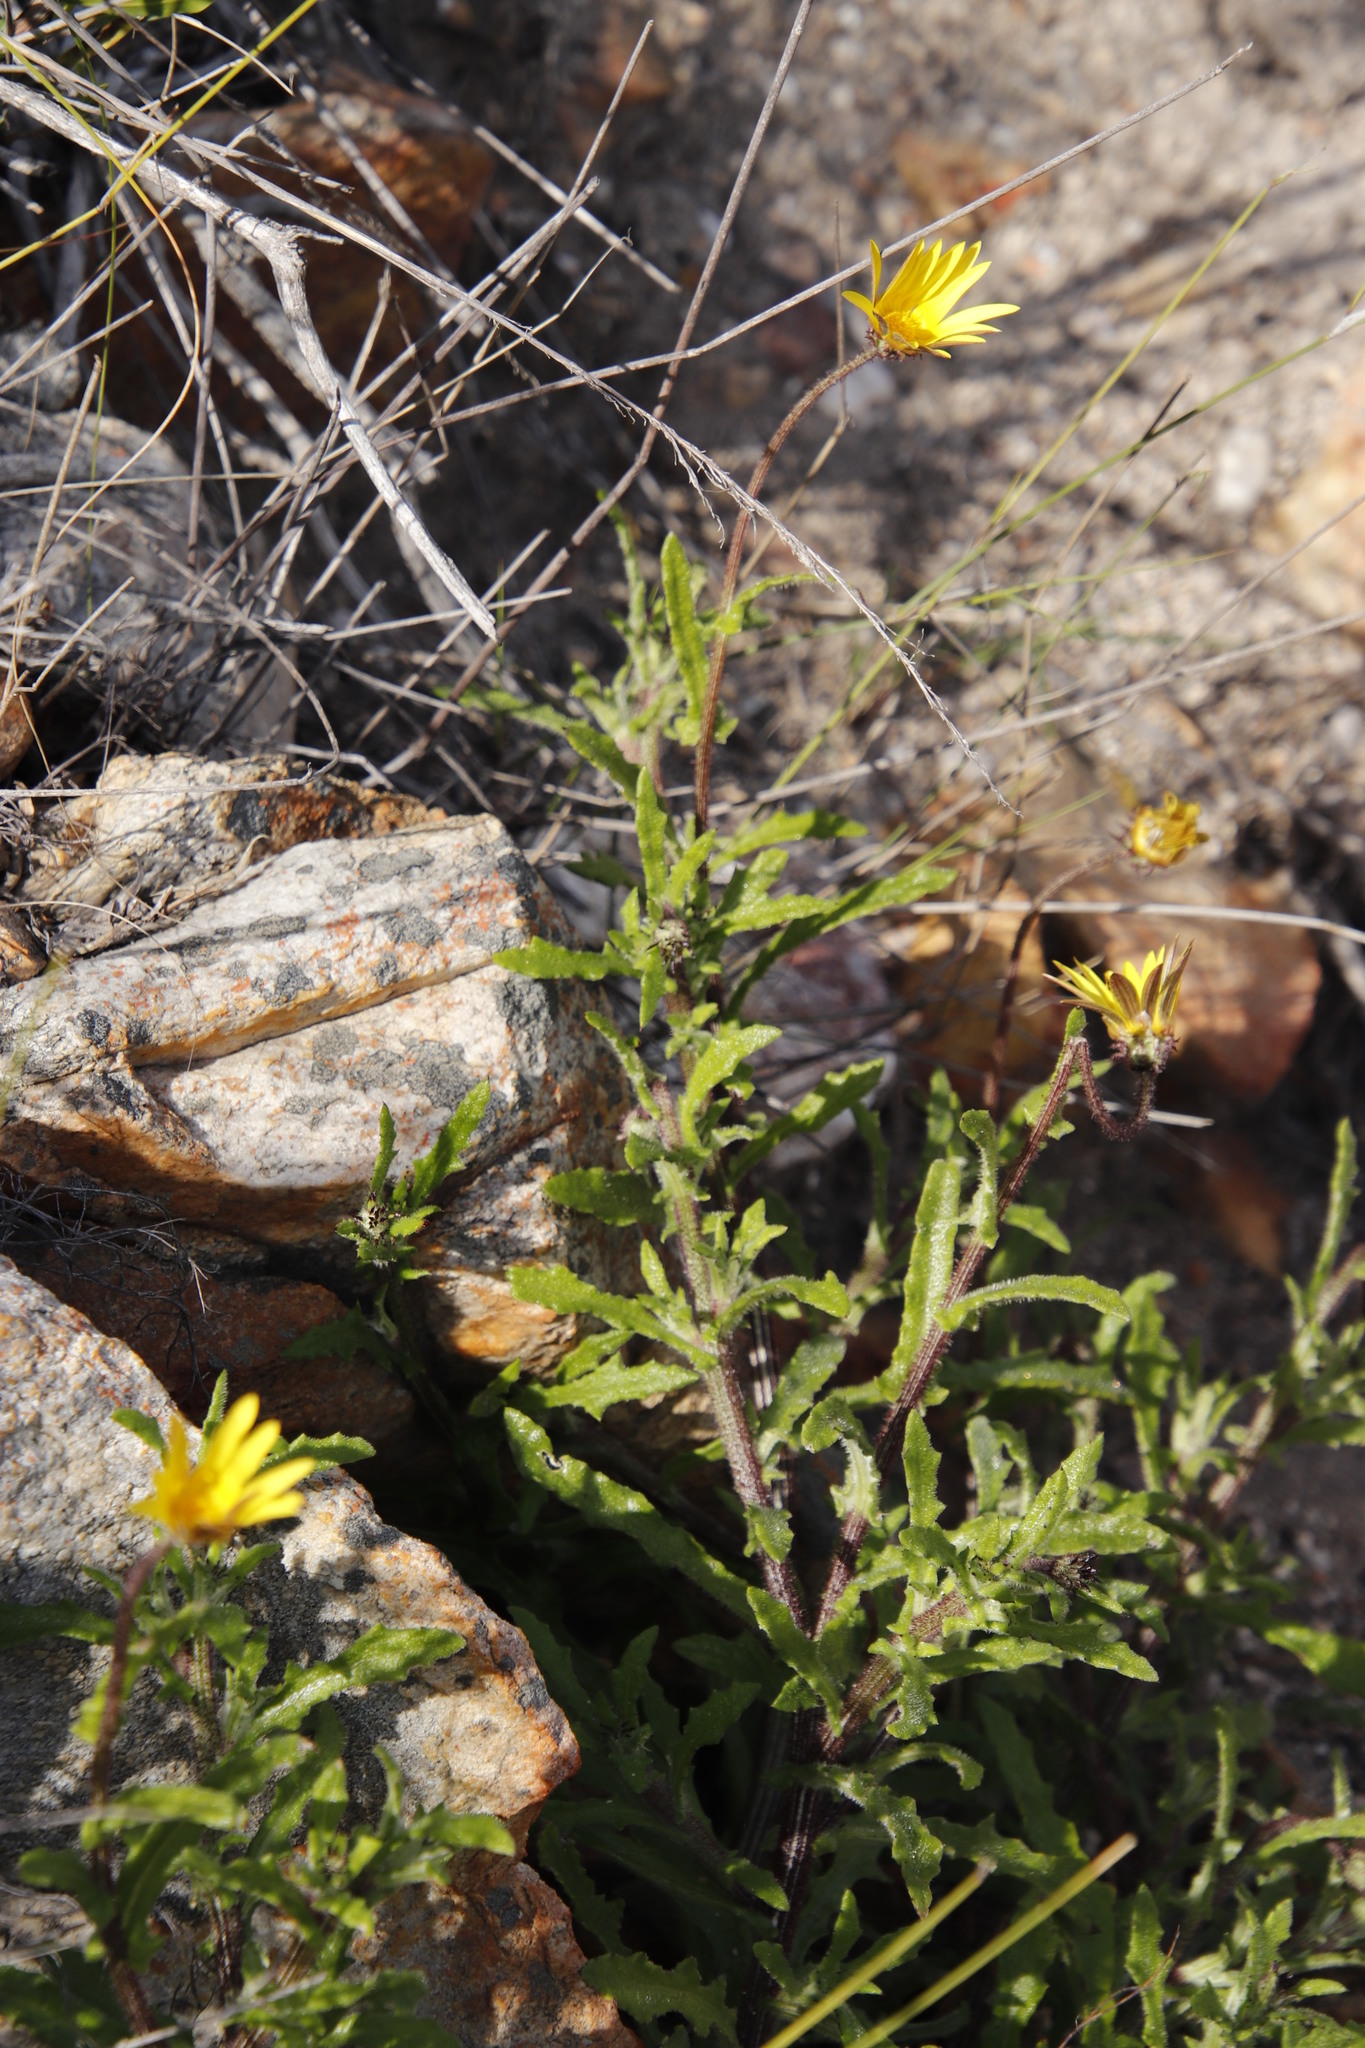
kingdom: Plantae
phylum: Tracheophyta
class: Magnoliopsida
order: Asterales
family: Asteraceae
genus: Arctotis
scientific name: Arctotis scabra
